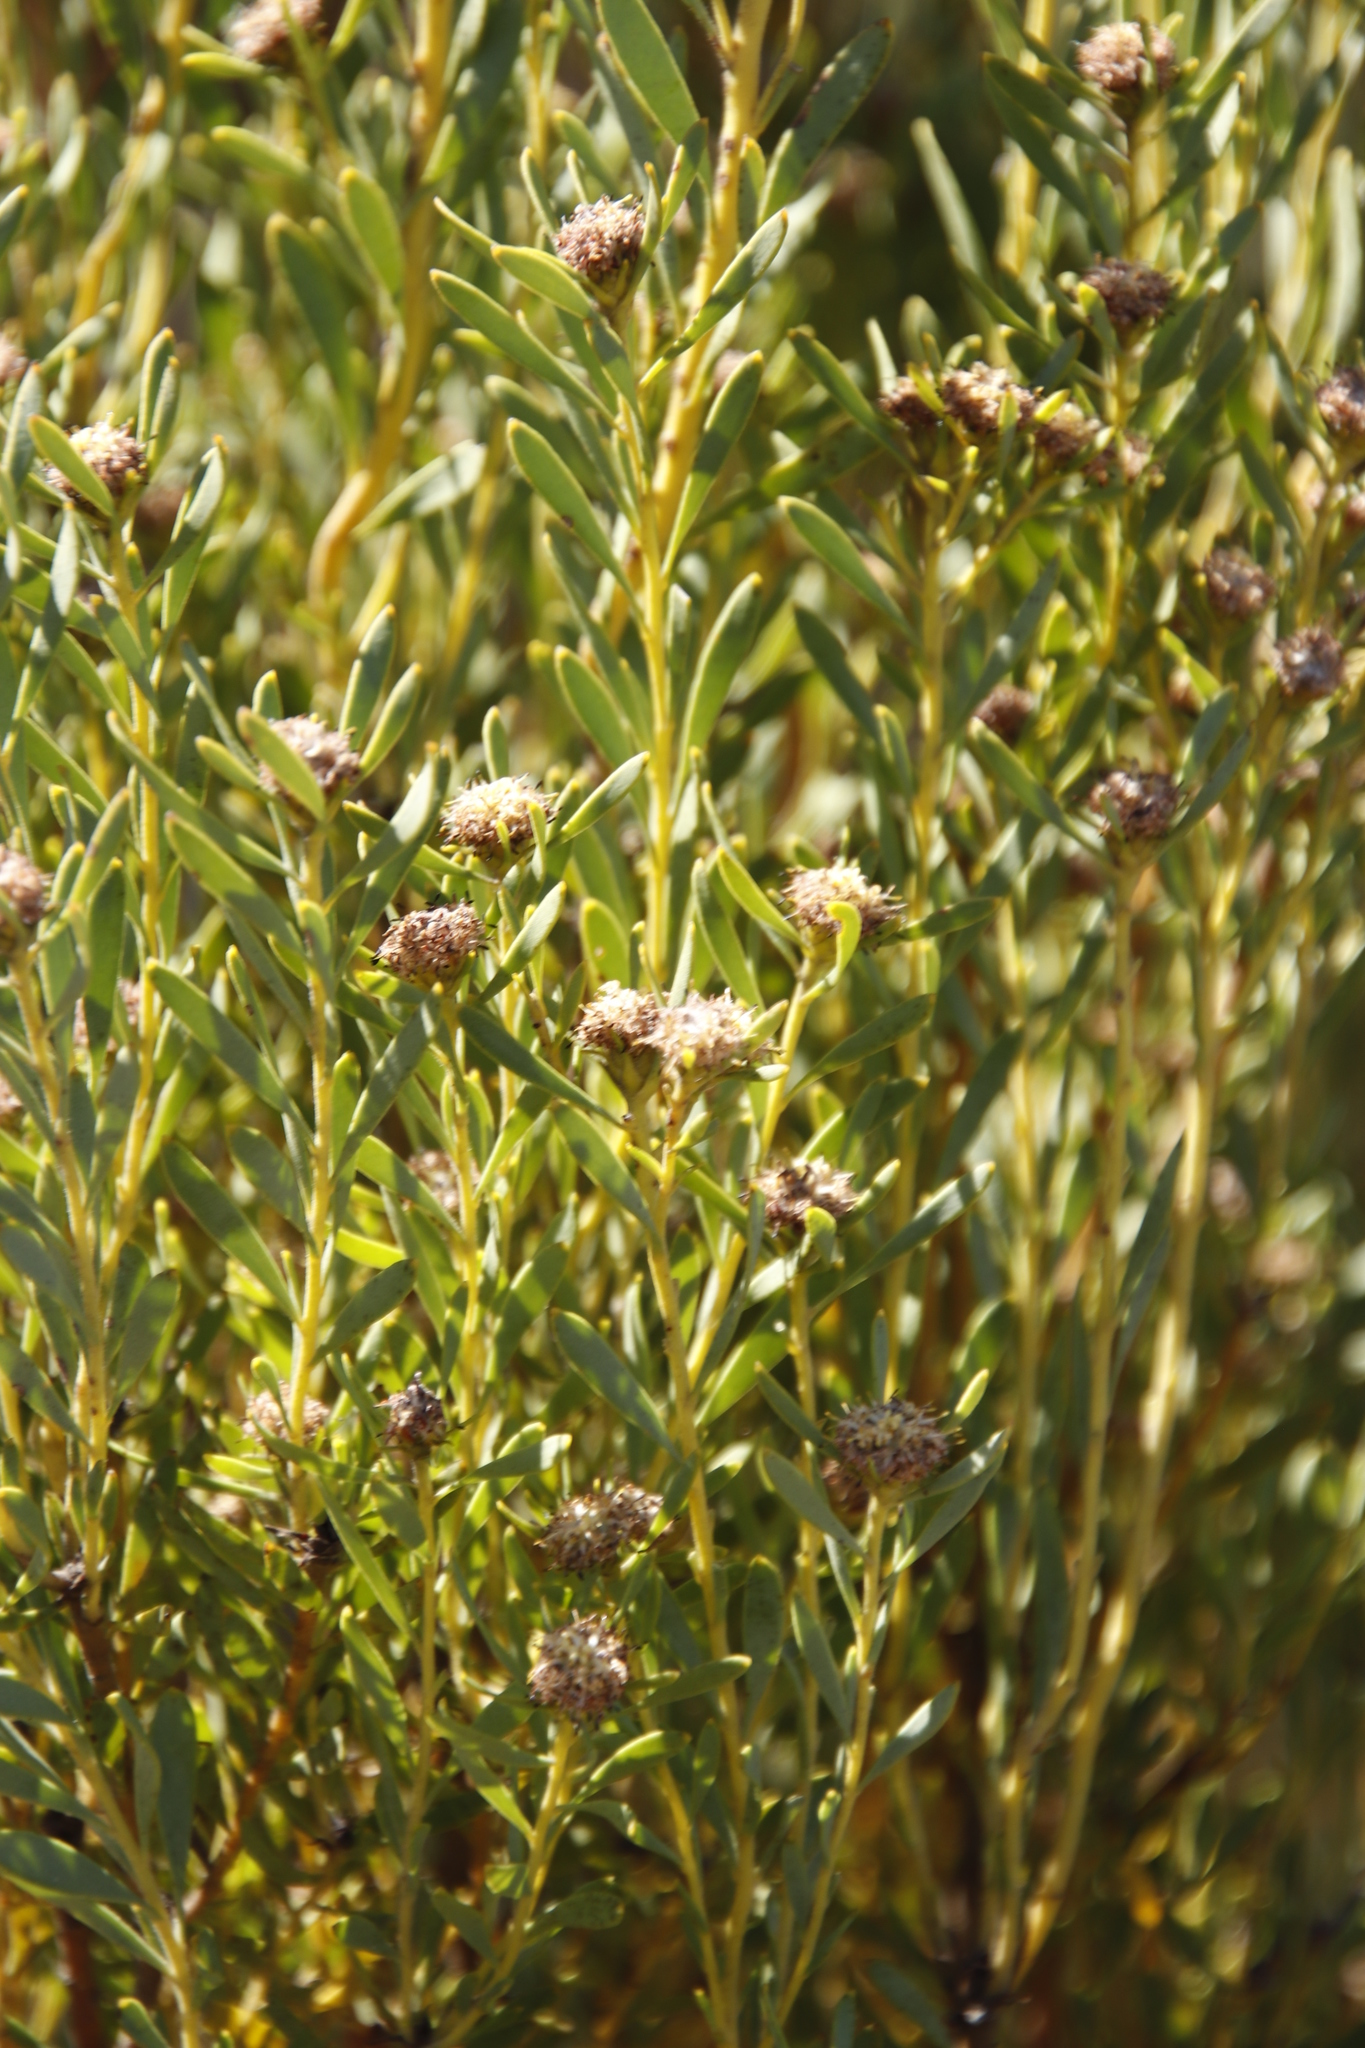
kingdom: Plantae
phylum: Tracheophyta
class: Magnoliopsida
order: Proteales
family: Proteaceae
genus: Leucadendron
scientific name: Leucadendron pubescens
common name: Grey conebush
